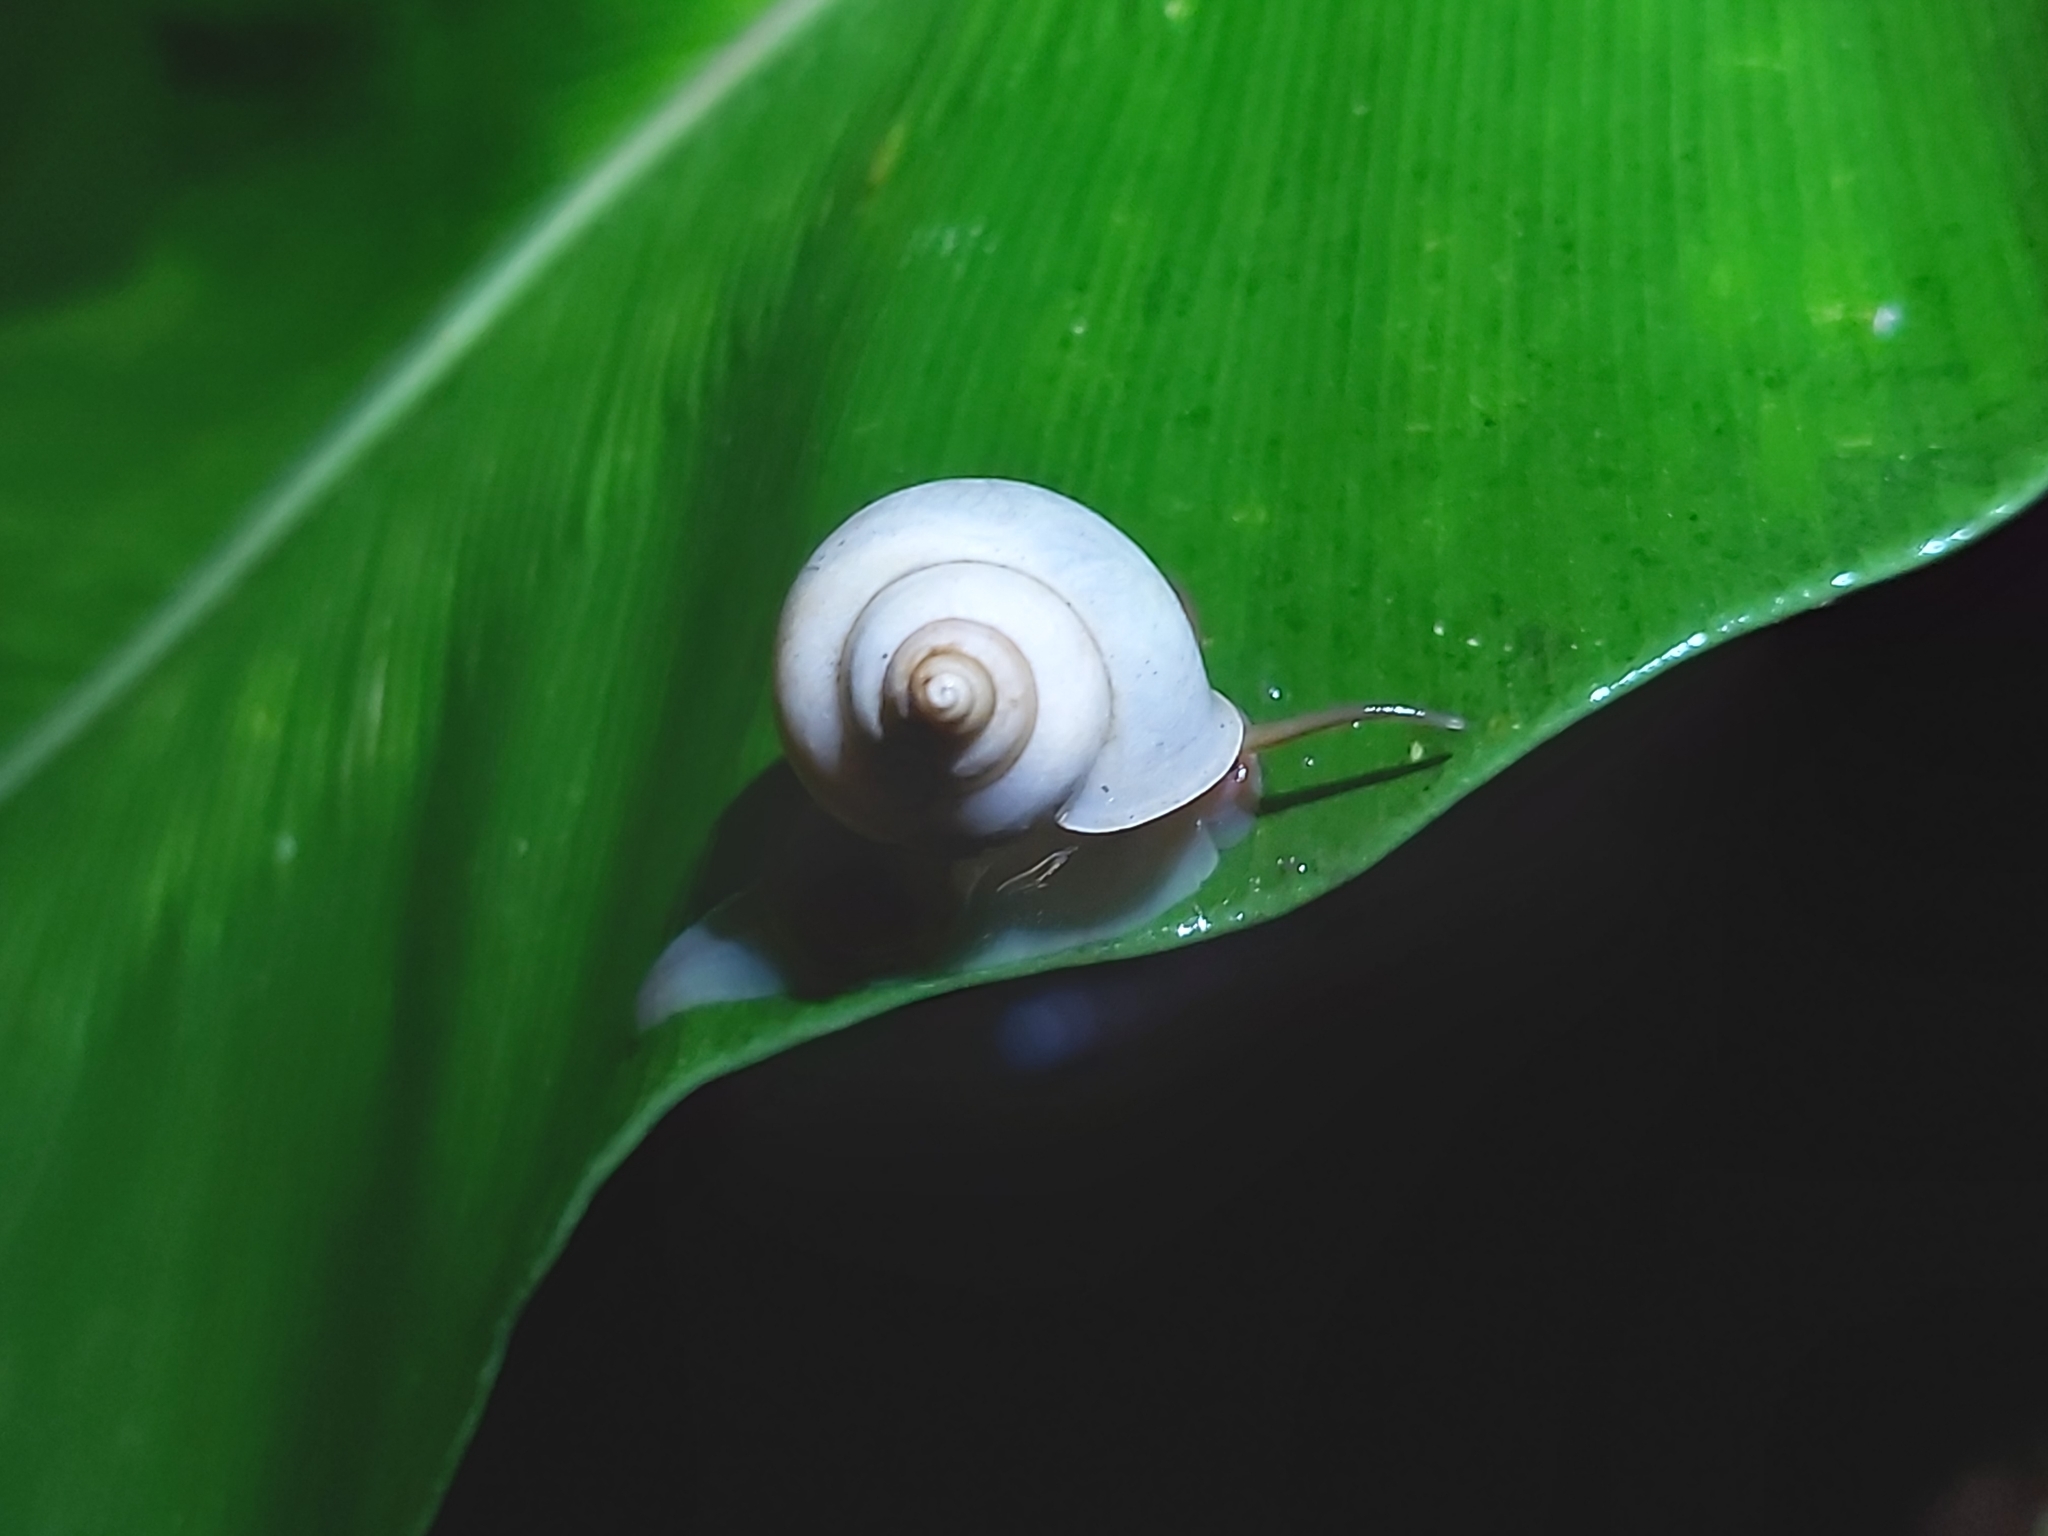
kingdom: Animalia
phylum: Mollusca
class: Gastropoda
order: Architaenioglossa
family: Cyclophoridae
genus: Leptopoma
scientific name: Leptopoma perlucidum
